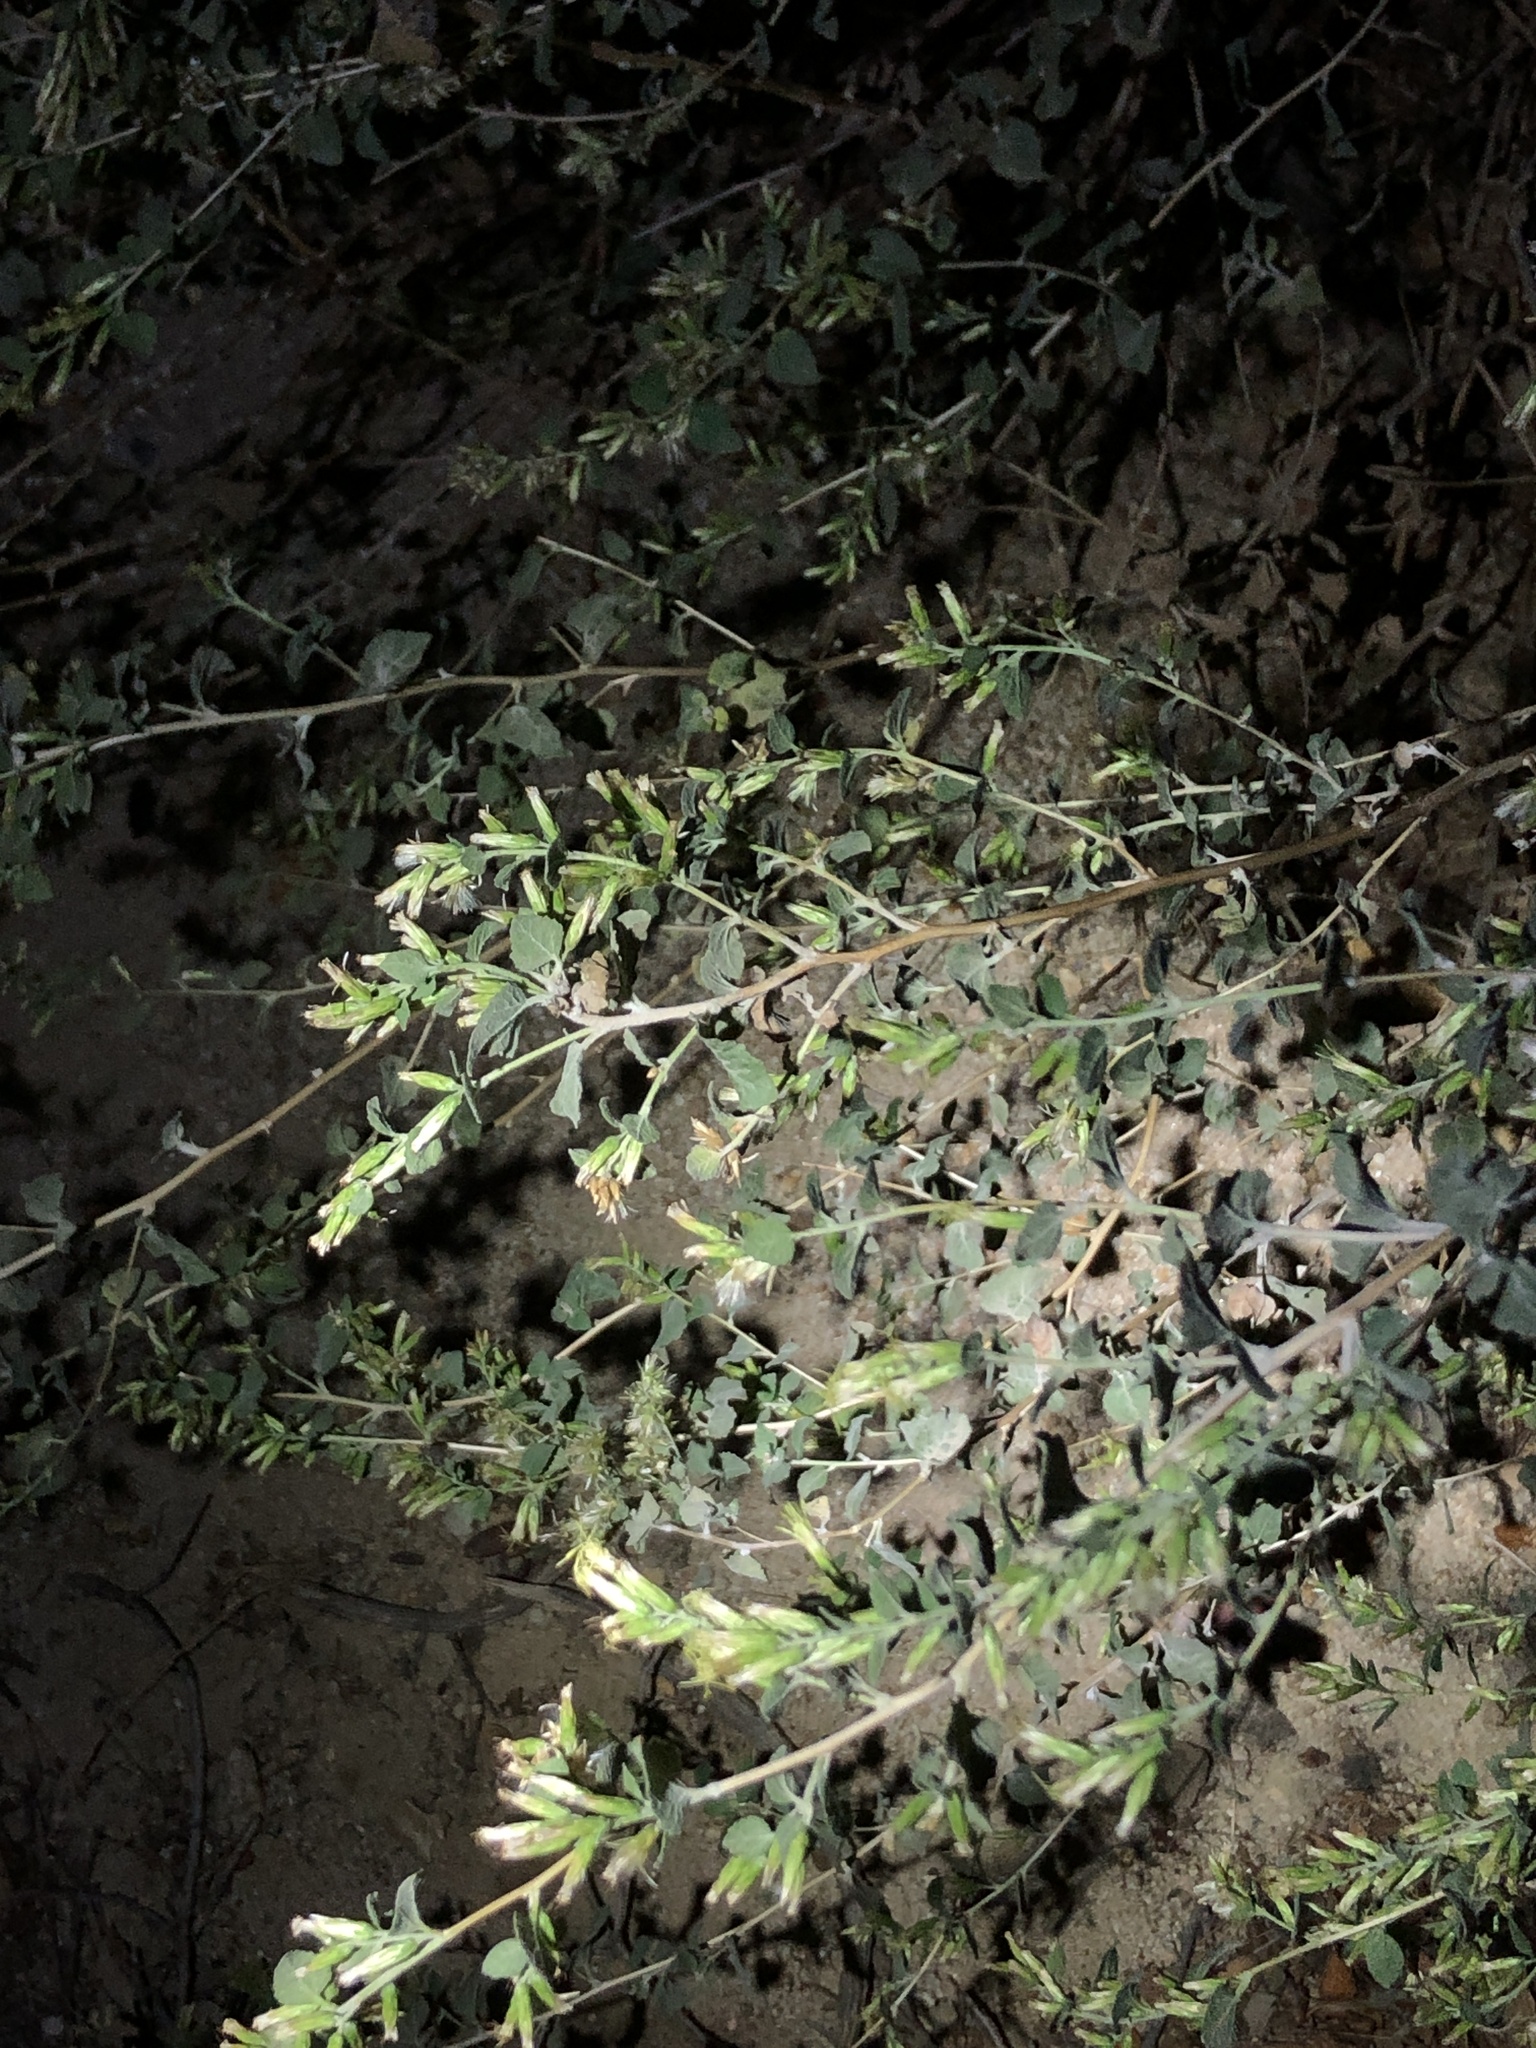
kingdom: Plantae
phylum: Tracheophyta
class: Magnoliopsida
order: Asterales
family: Asteraceae
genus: Brickellia
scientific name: Brickellia californica
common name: California brickellbush
